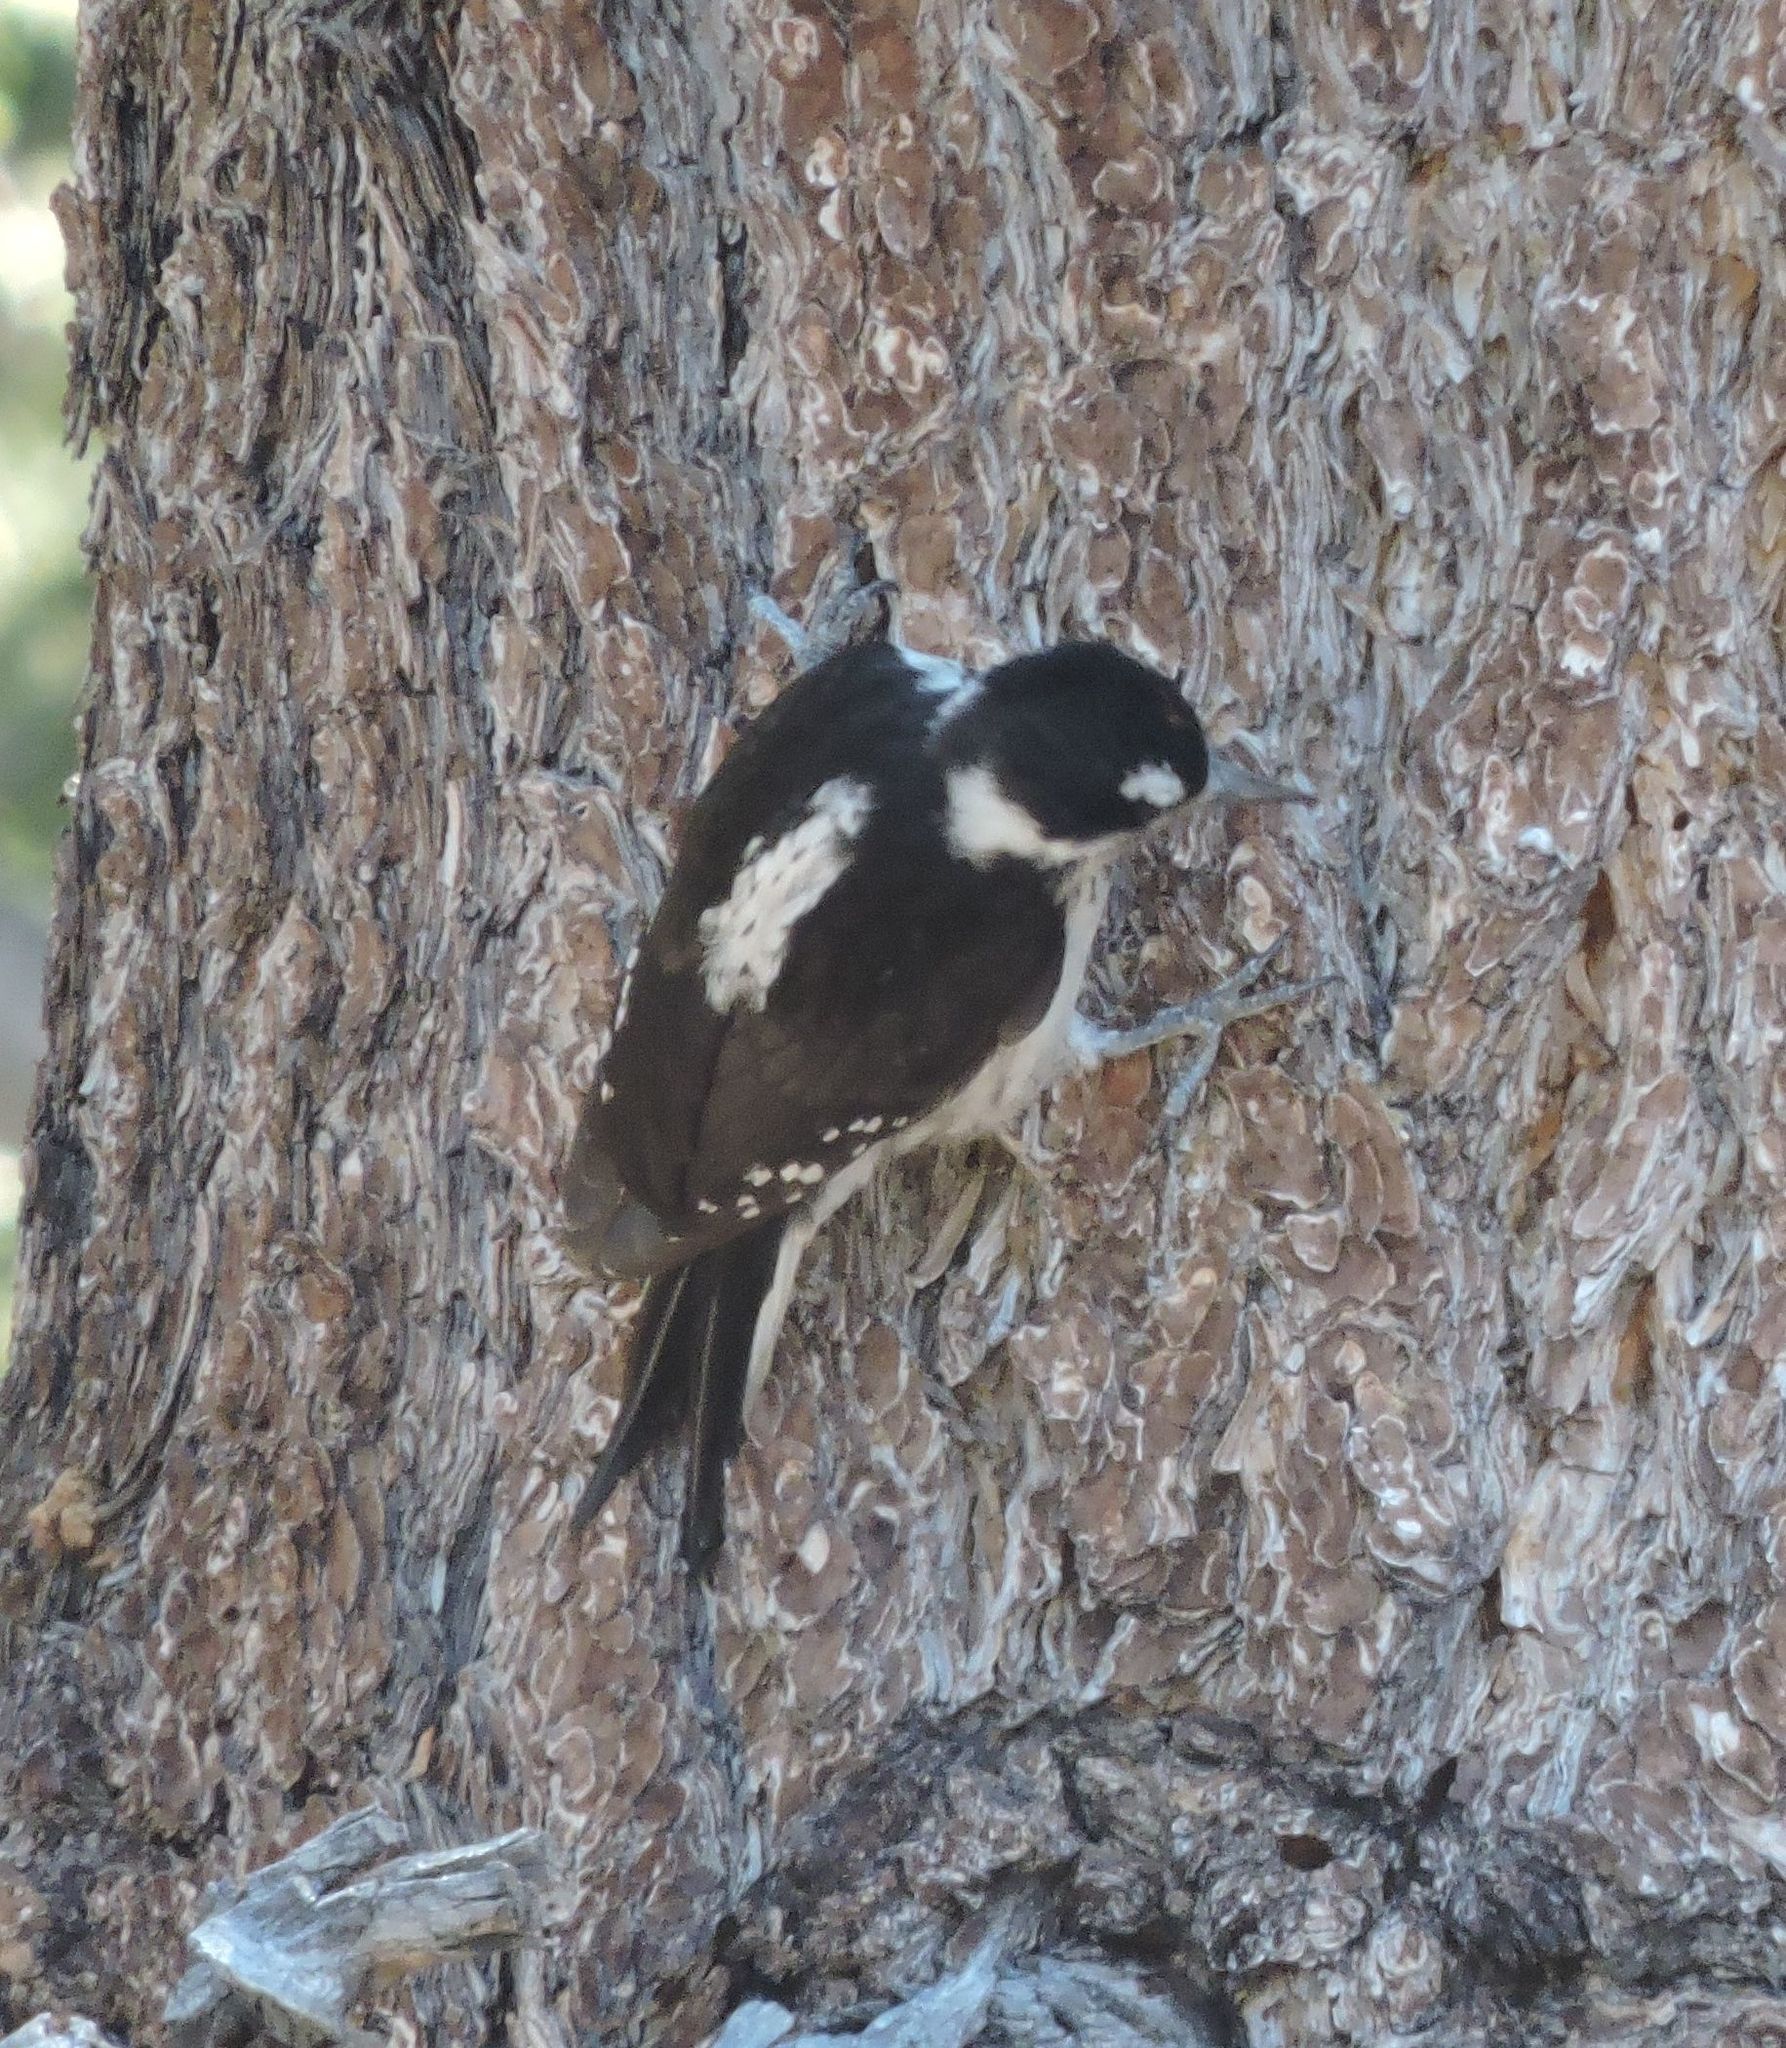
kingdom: Animalia
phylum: Chordata
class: Aves
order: Piciformes
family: Picidae
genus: Leuconotopicus
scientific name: Leuconotopicus villosus
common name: Hairy woodpecker
